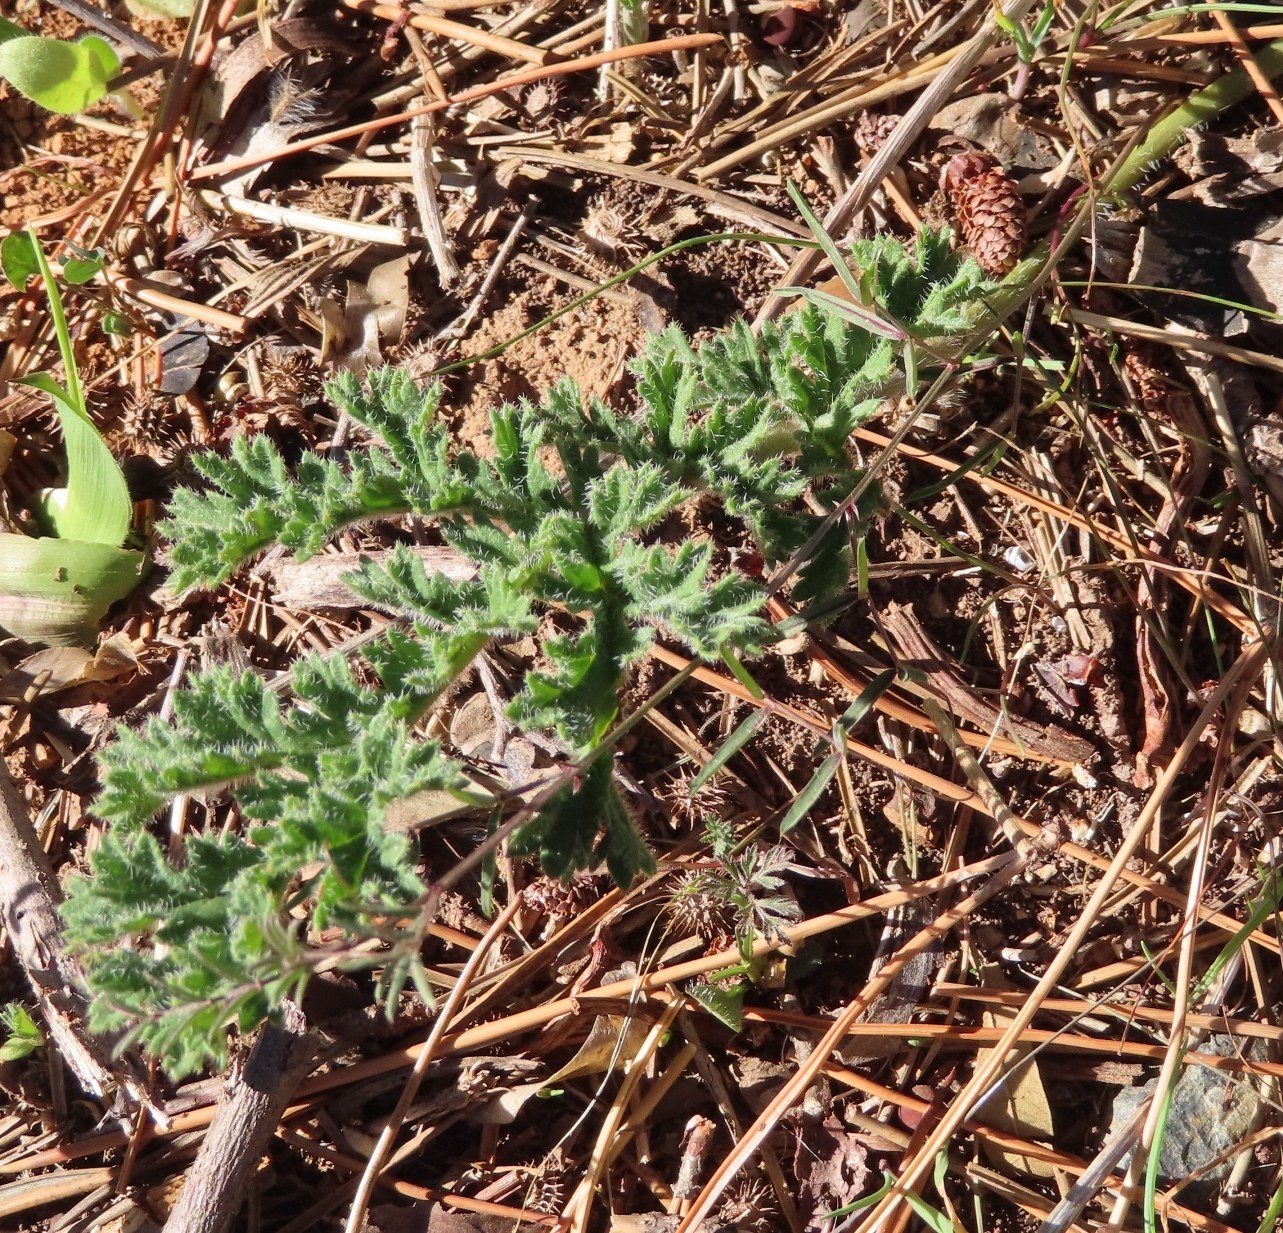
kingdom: Plantae
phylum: Tracheophyta
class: Magnoliopsida
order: Geraniales
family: Geraniaceae
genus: Pelargonium
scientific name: Pelargonium triste
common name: Night-scent pelargonium
